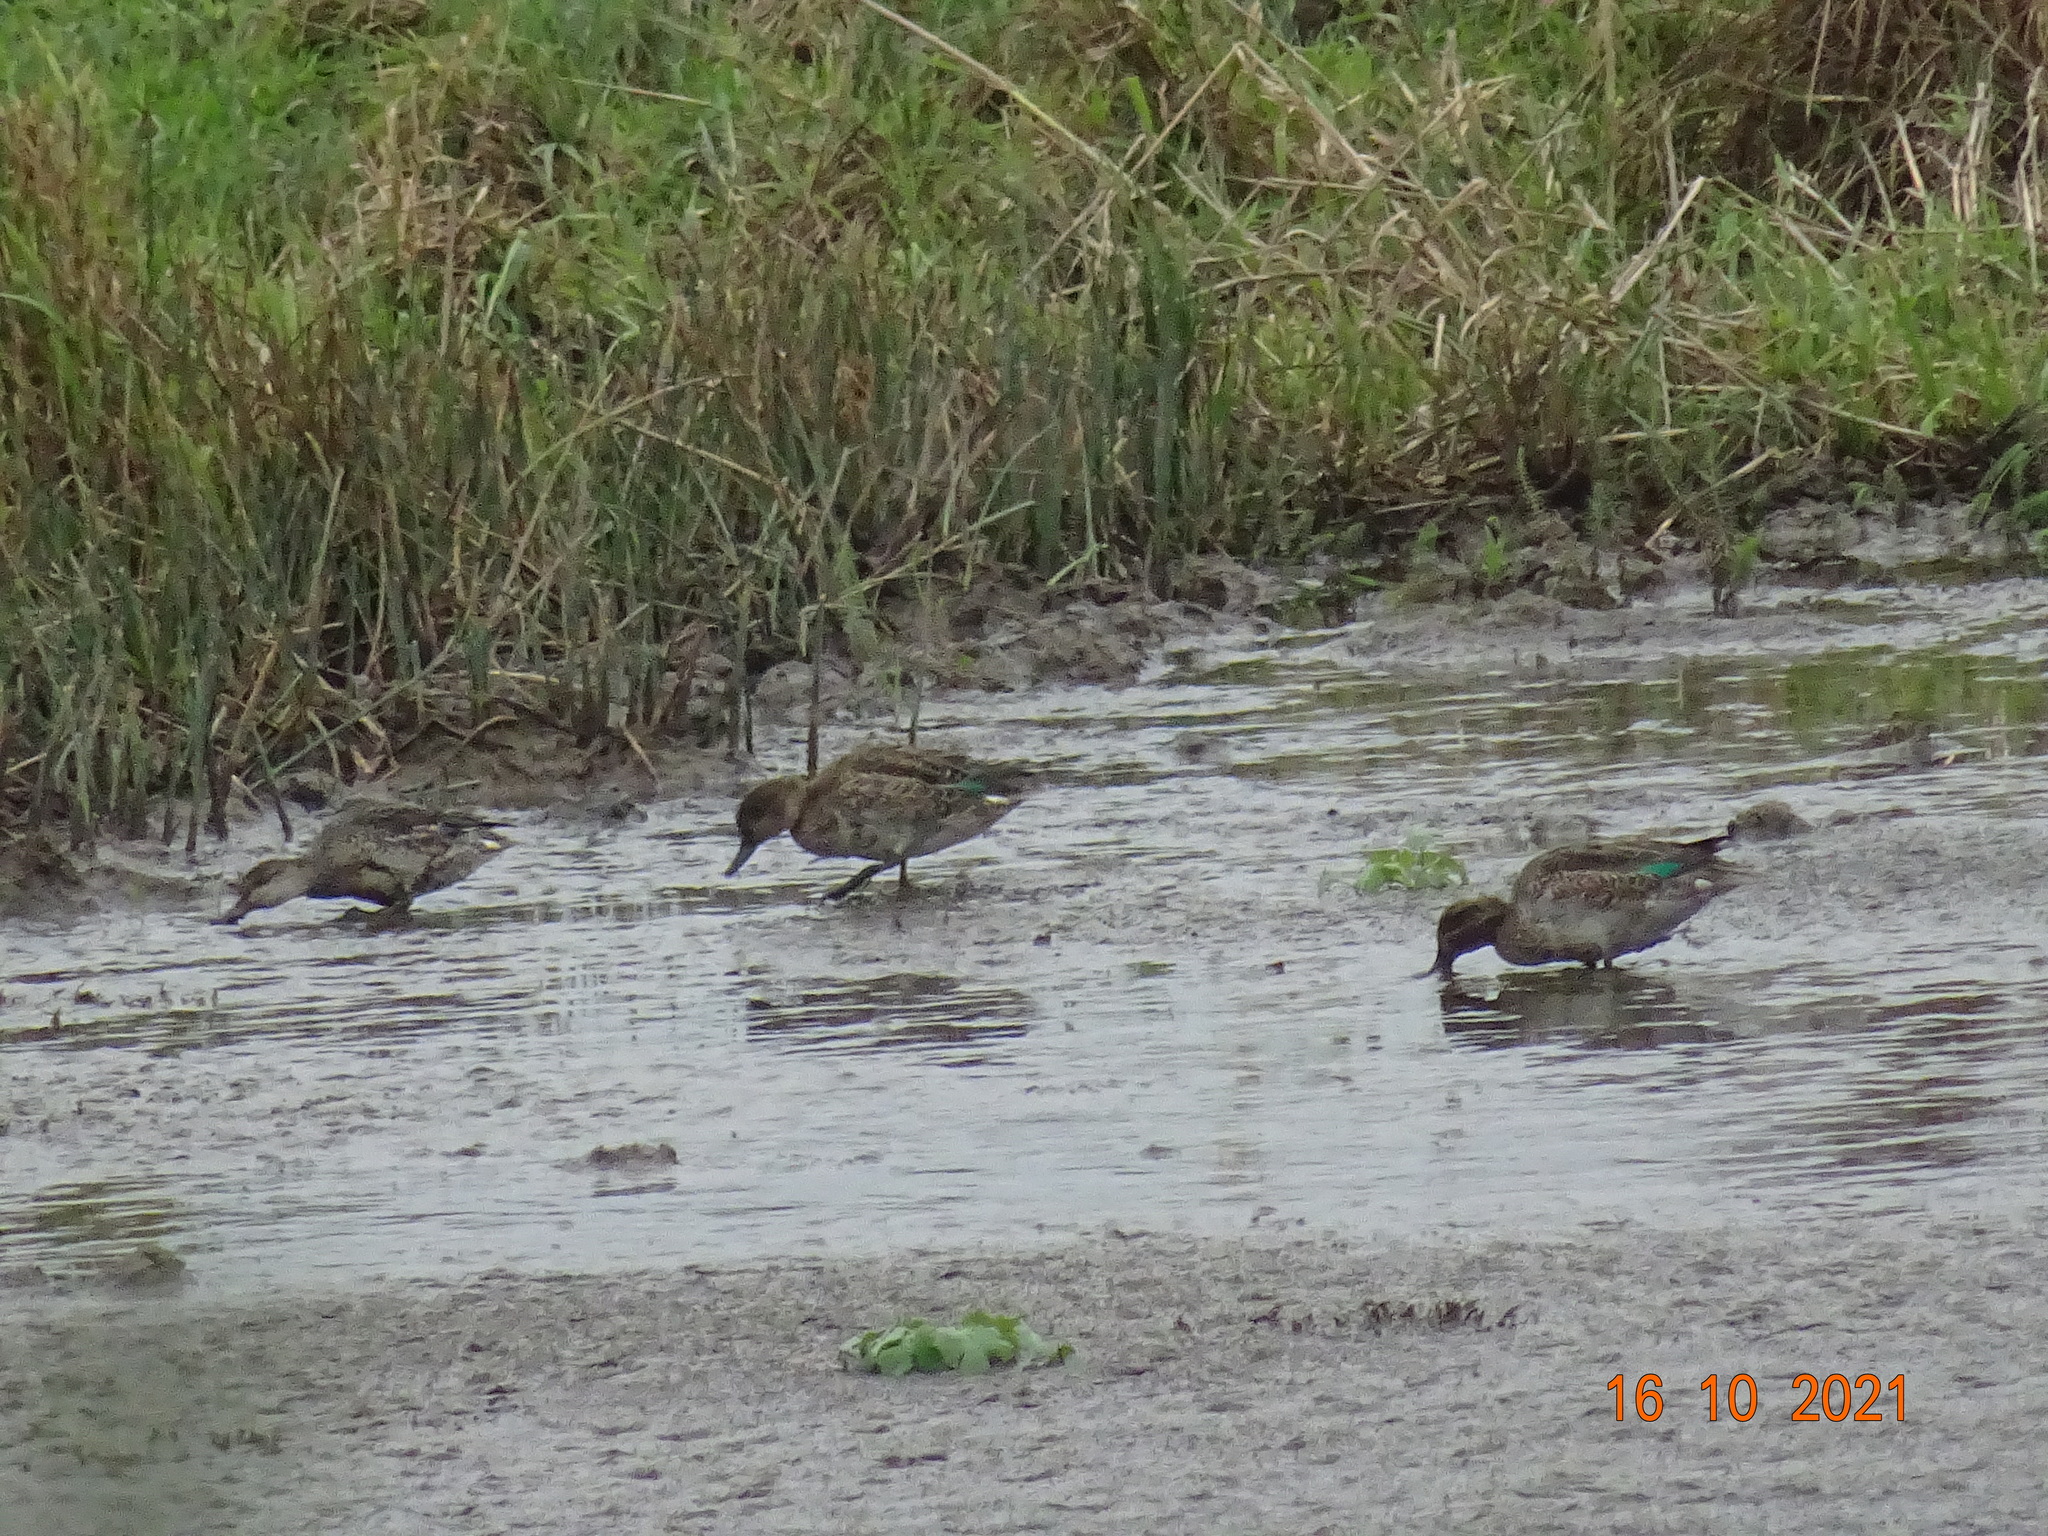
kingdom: Animalia
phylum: Chordata
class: Aves
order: Anseriformes
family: Anatidae
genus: Anas
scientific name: Anas crecca
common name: Eurasian teal
